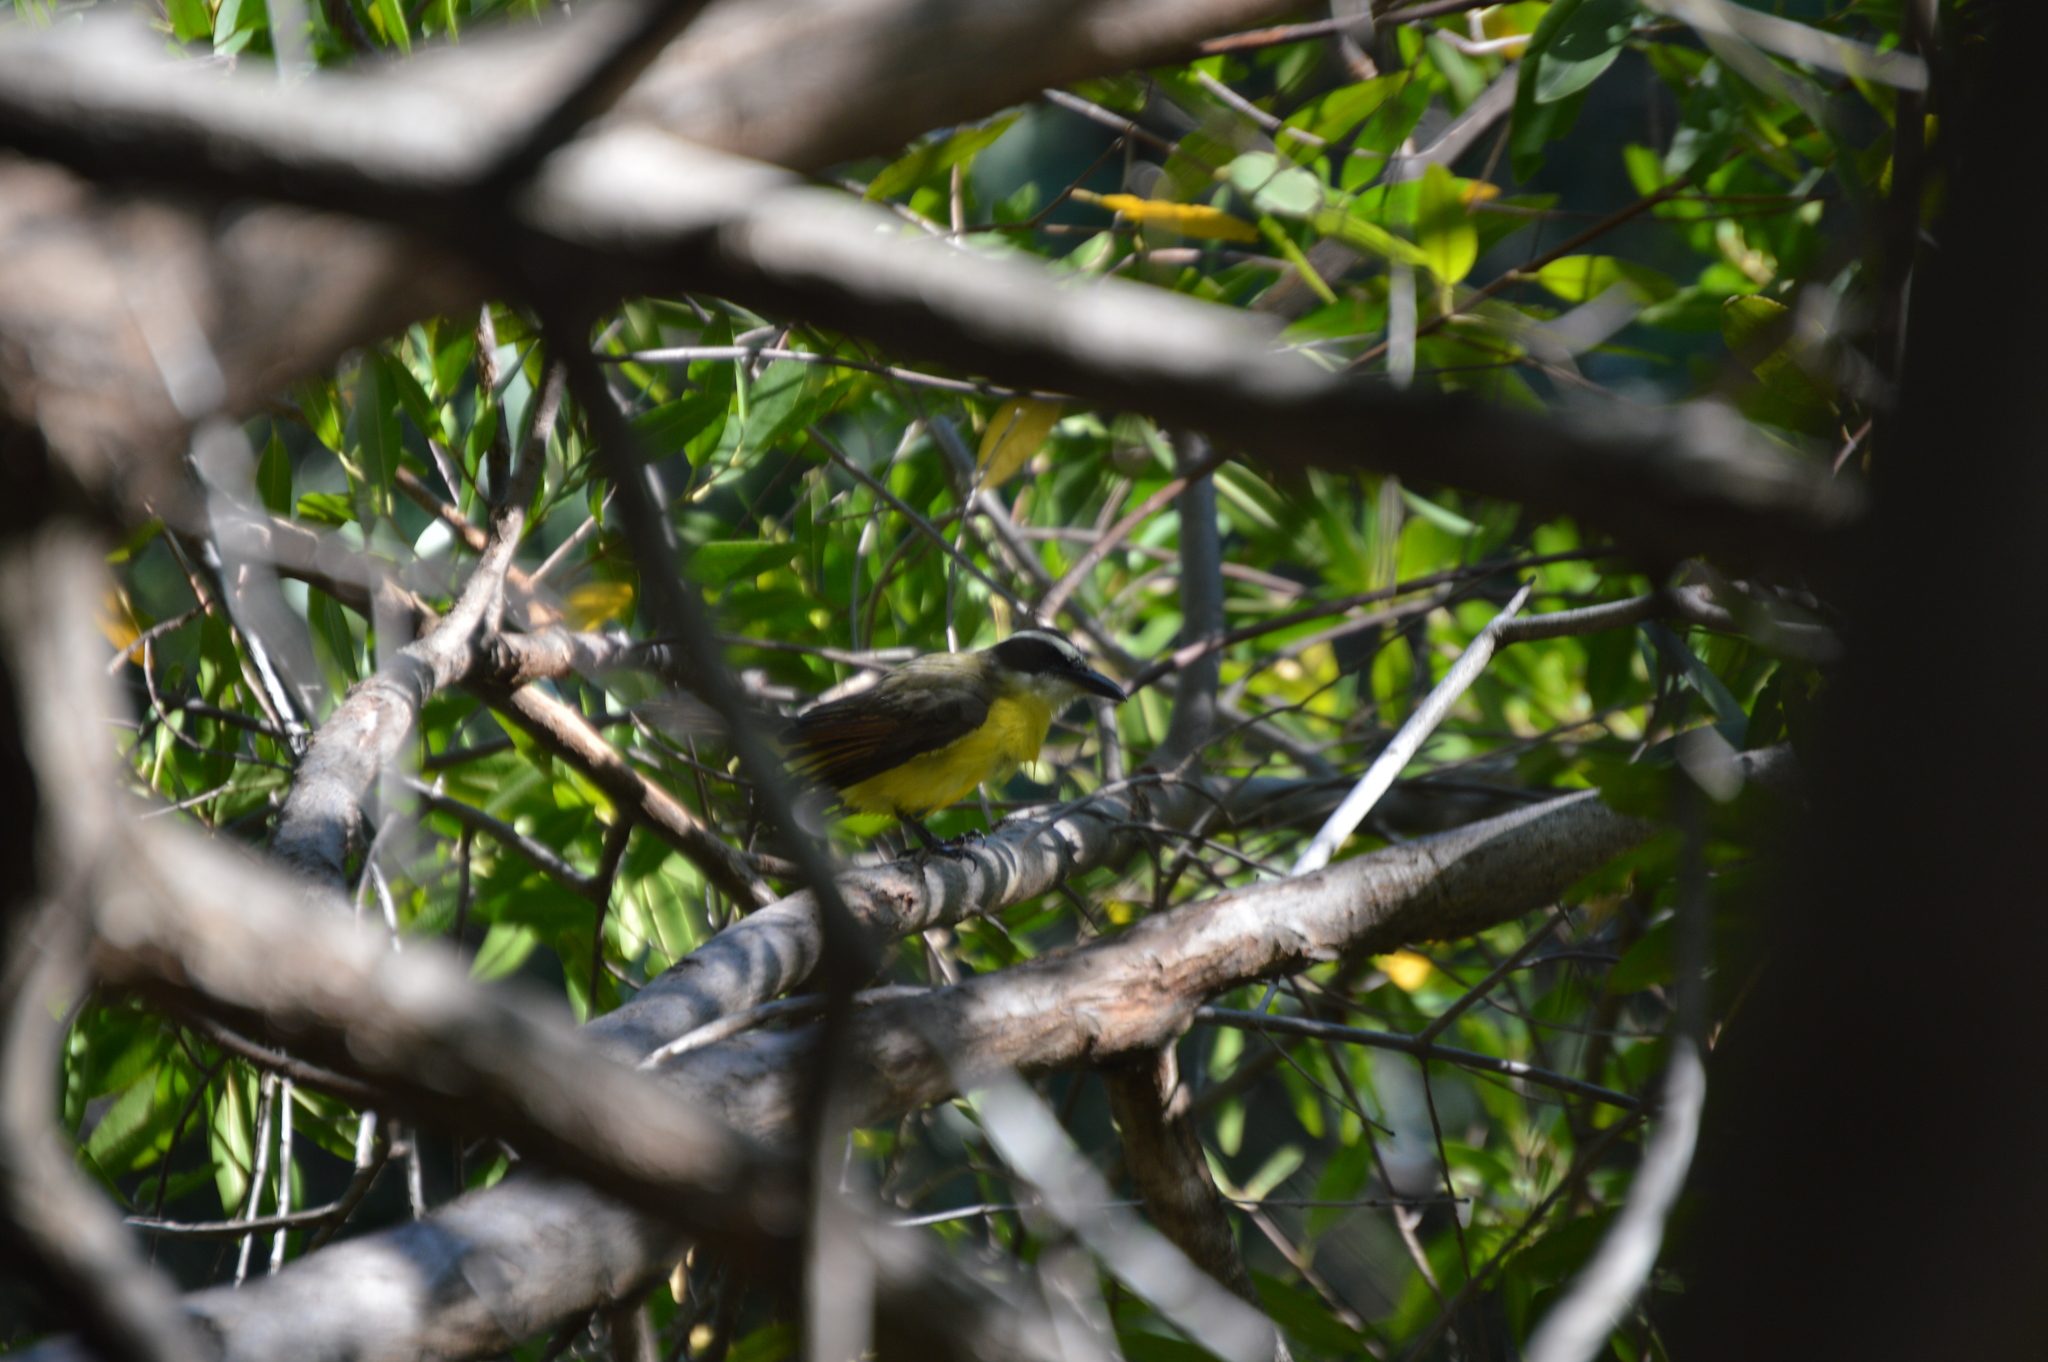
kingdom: Animalia
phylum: Chordata
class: Aves
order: Passeriformes
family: Tyrannidae
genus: Megarynchus
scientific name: Megarynchus pitangua
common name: Boat-billed flycatcher
